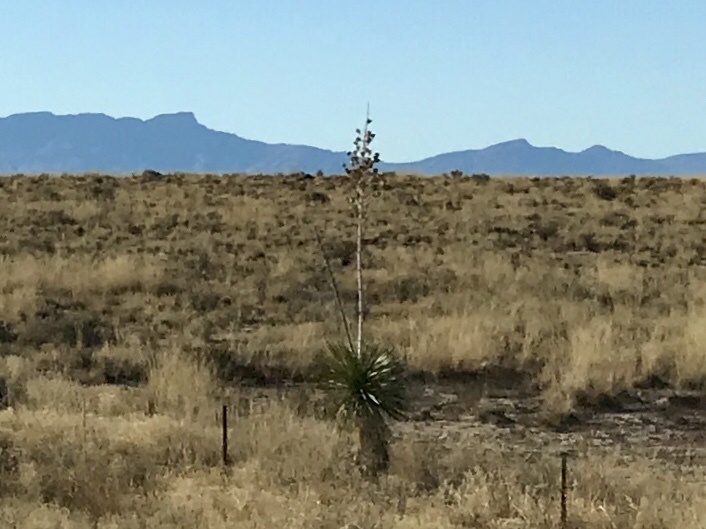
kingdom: Plantae
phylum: Tracheophyta
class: Liliopsida
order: Asparagales
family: Asparagaceae
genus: Yucca
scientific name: Yucca elata
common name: Palmella
